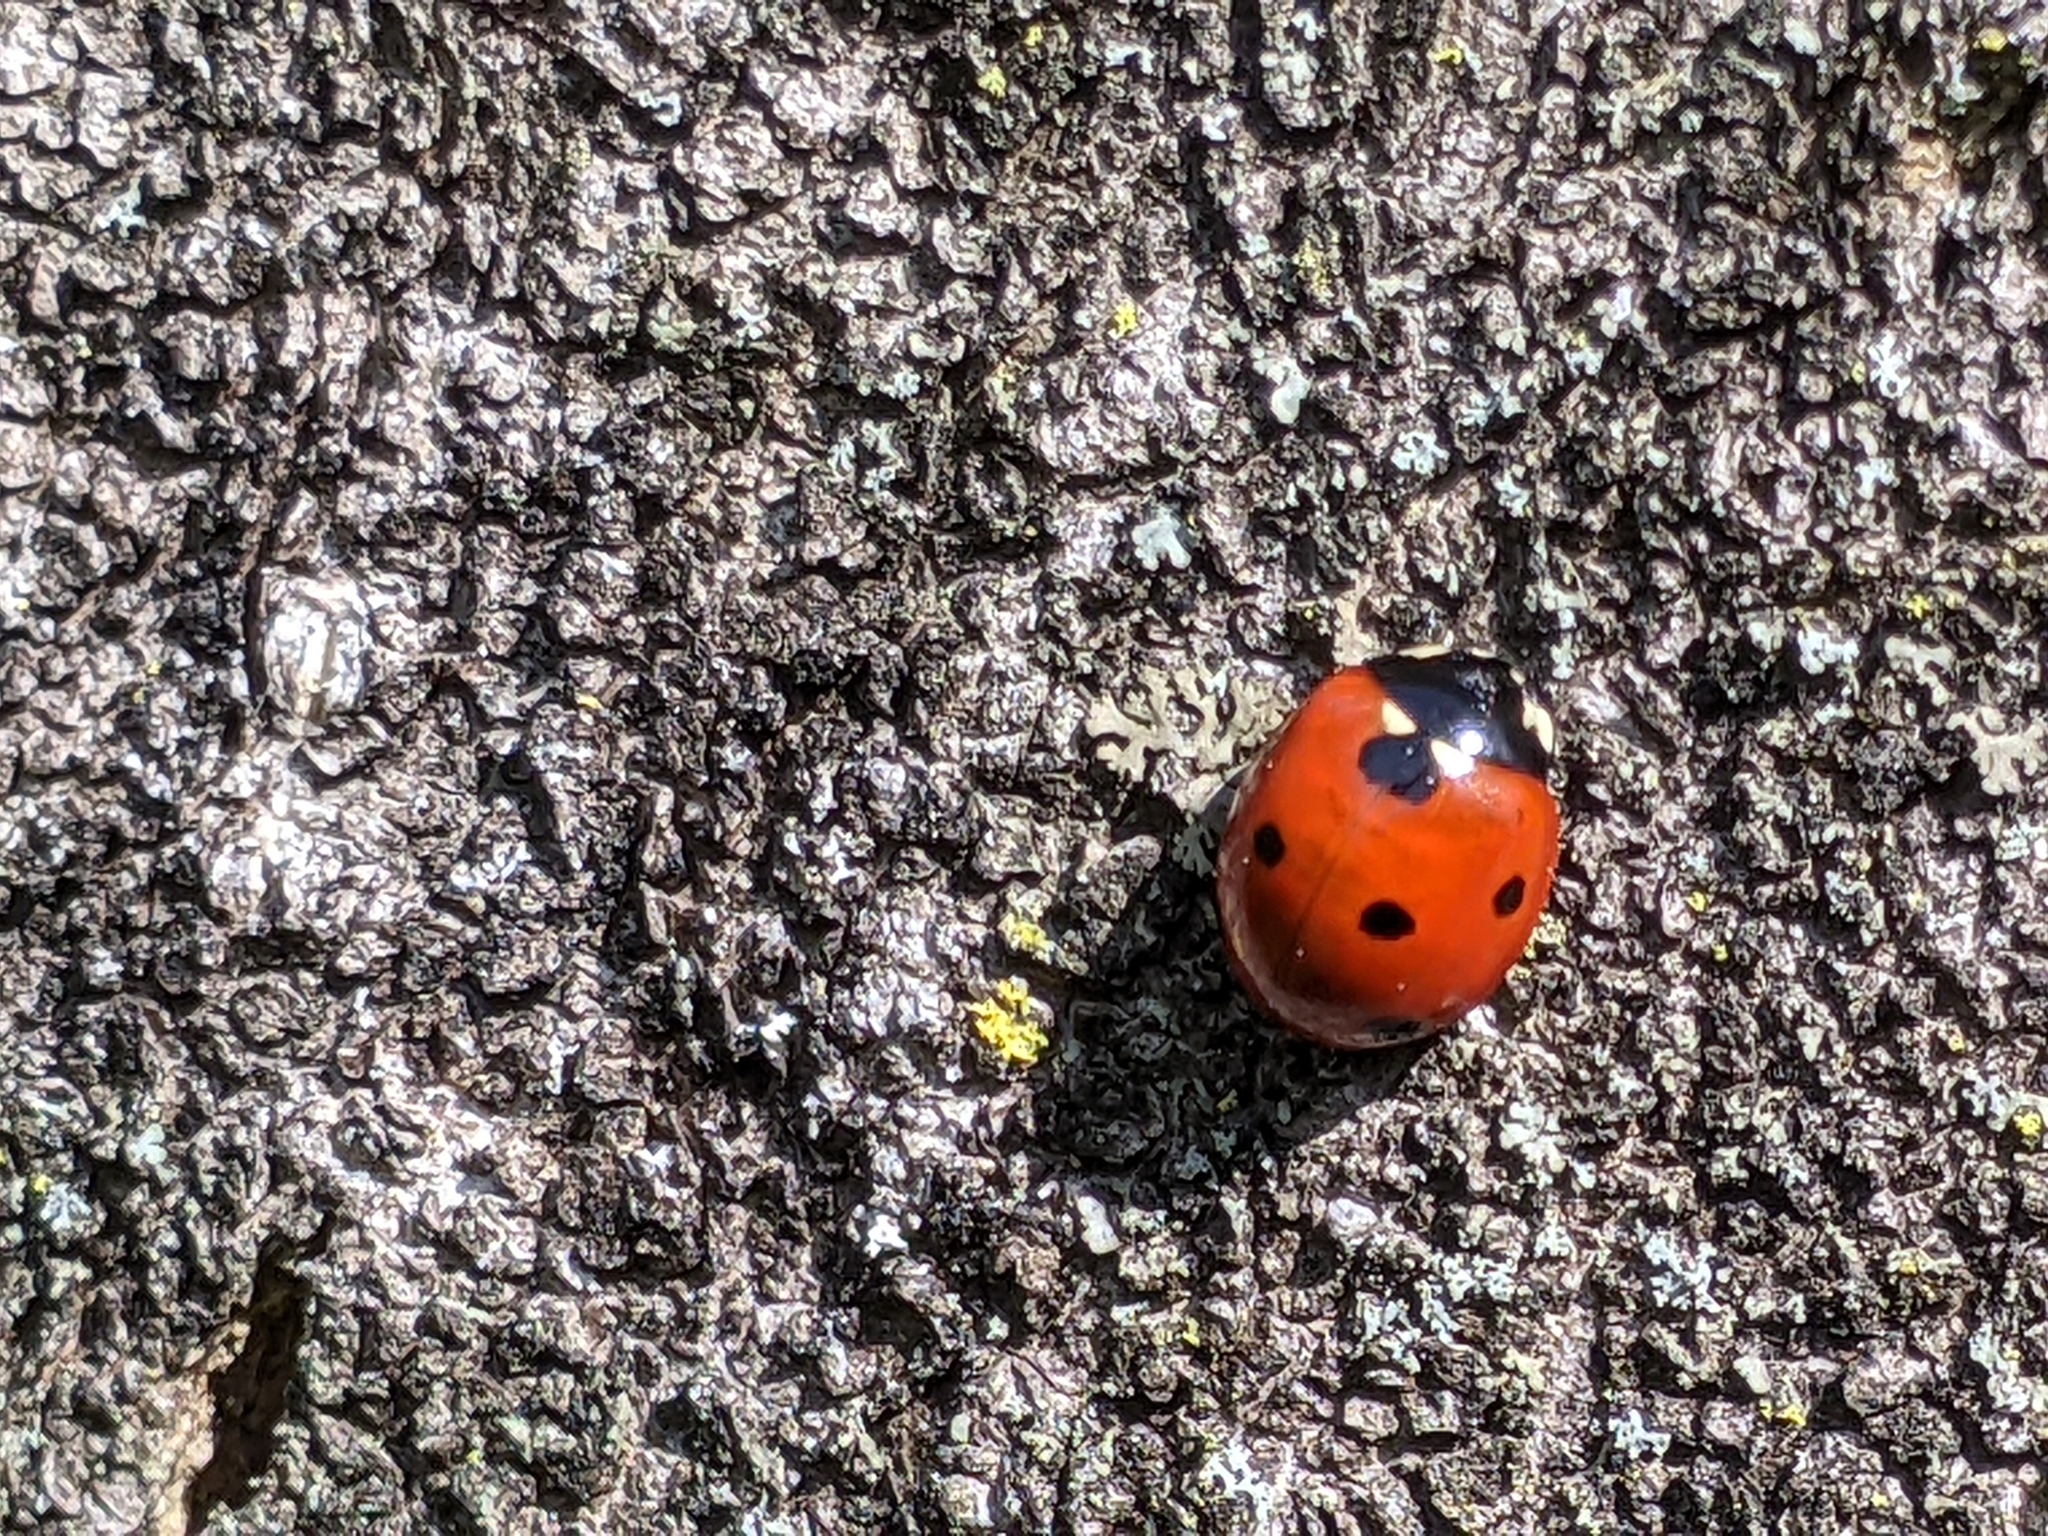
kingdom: Animalia
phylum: Arthropoda
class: Insecta
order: Coleoptera
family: Coccinellidae
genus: Coccinella
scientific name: Coccinella septempunctata
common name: Sevenspotted lady beetle
